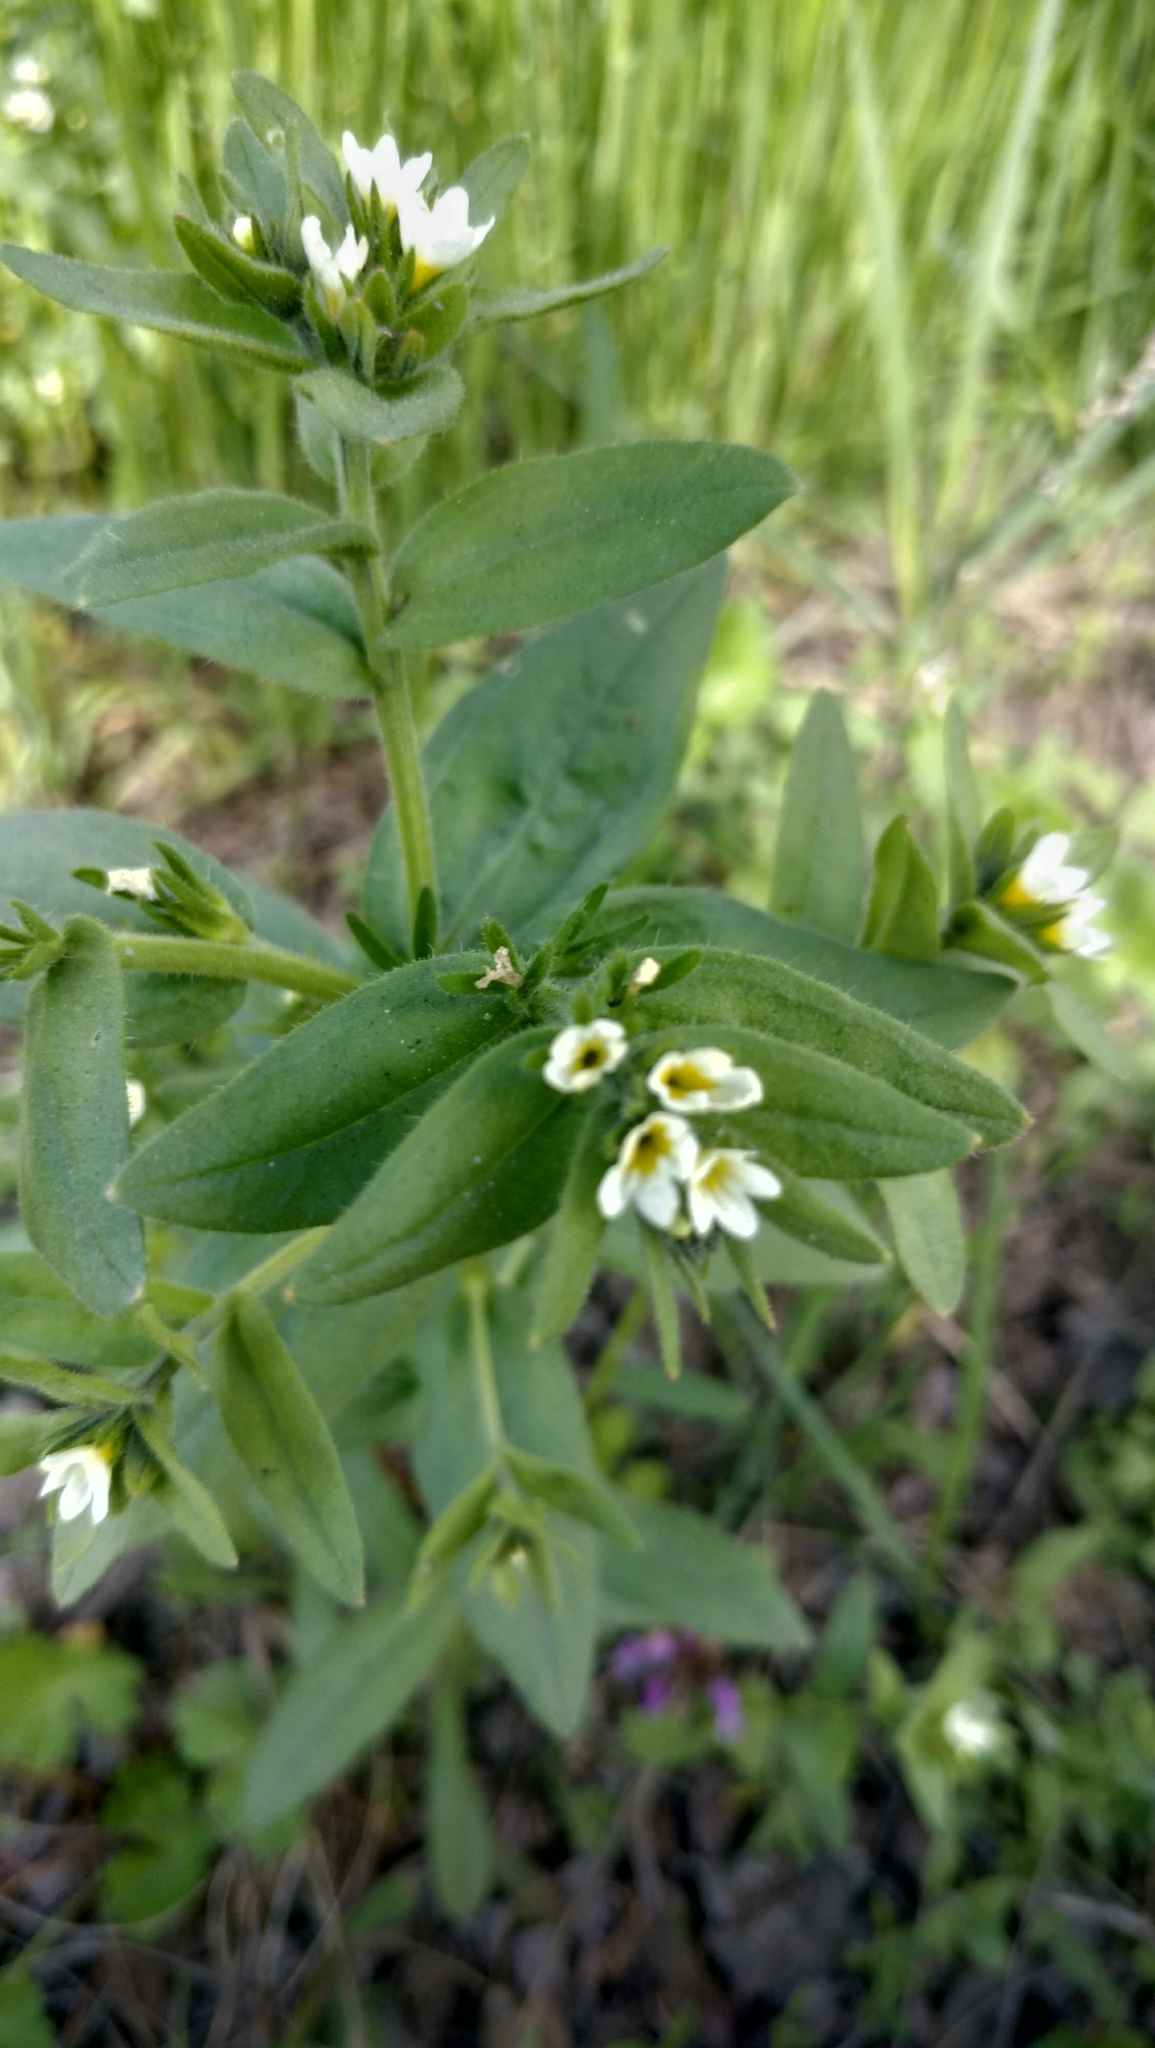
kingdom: Plantae
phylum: Tracheophyta
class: Magnoliopsida
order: Boraginales
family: Boraginaceae
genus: Buglossoides
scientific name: Buglossoides arvensis
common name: Corn gromwell
